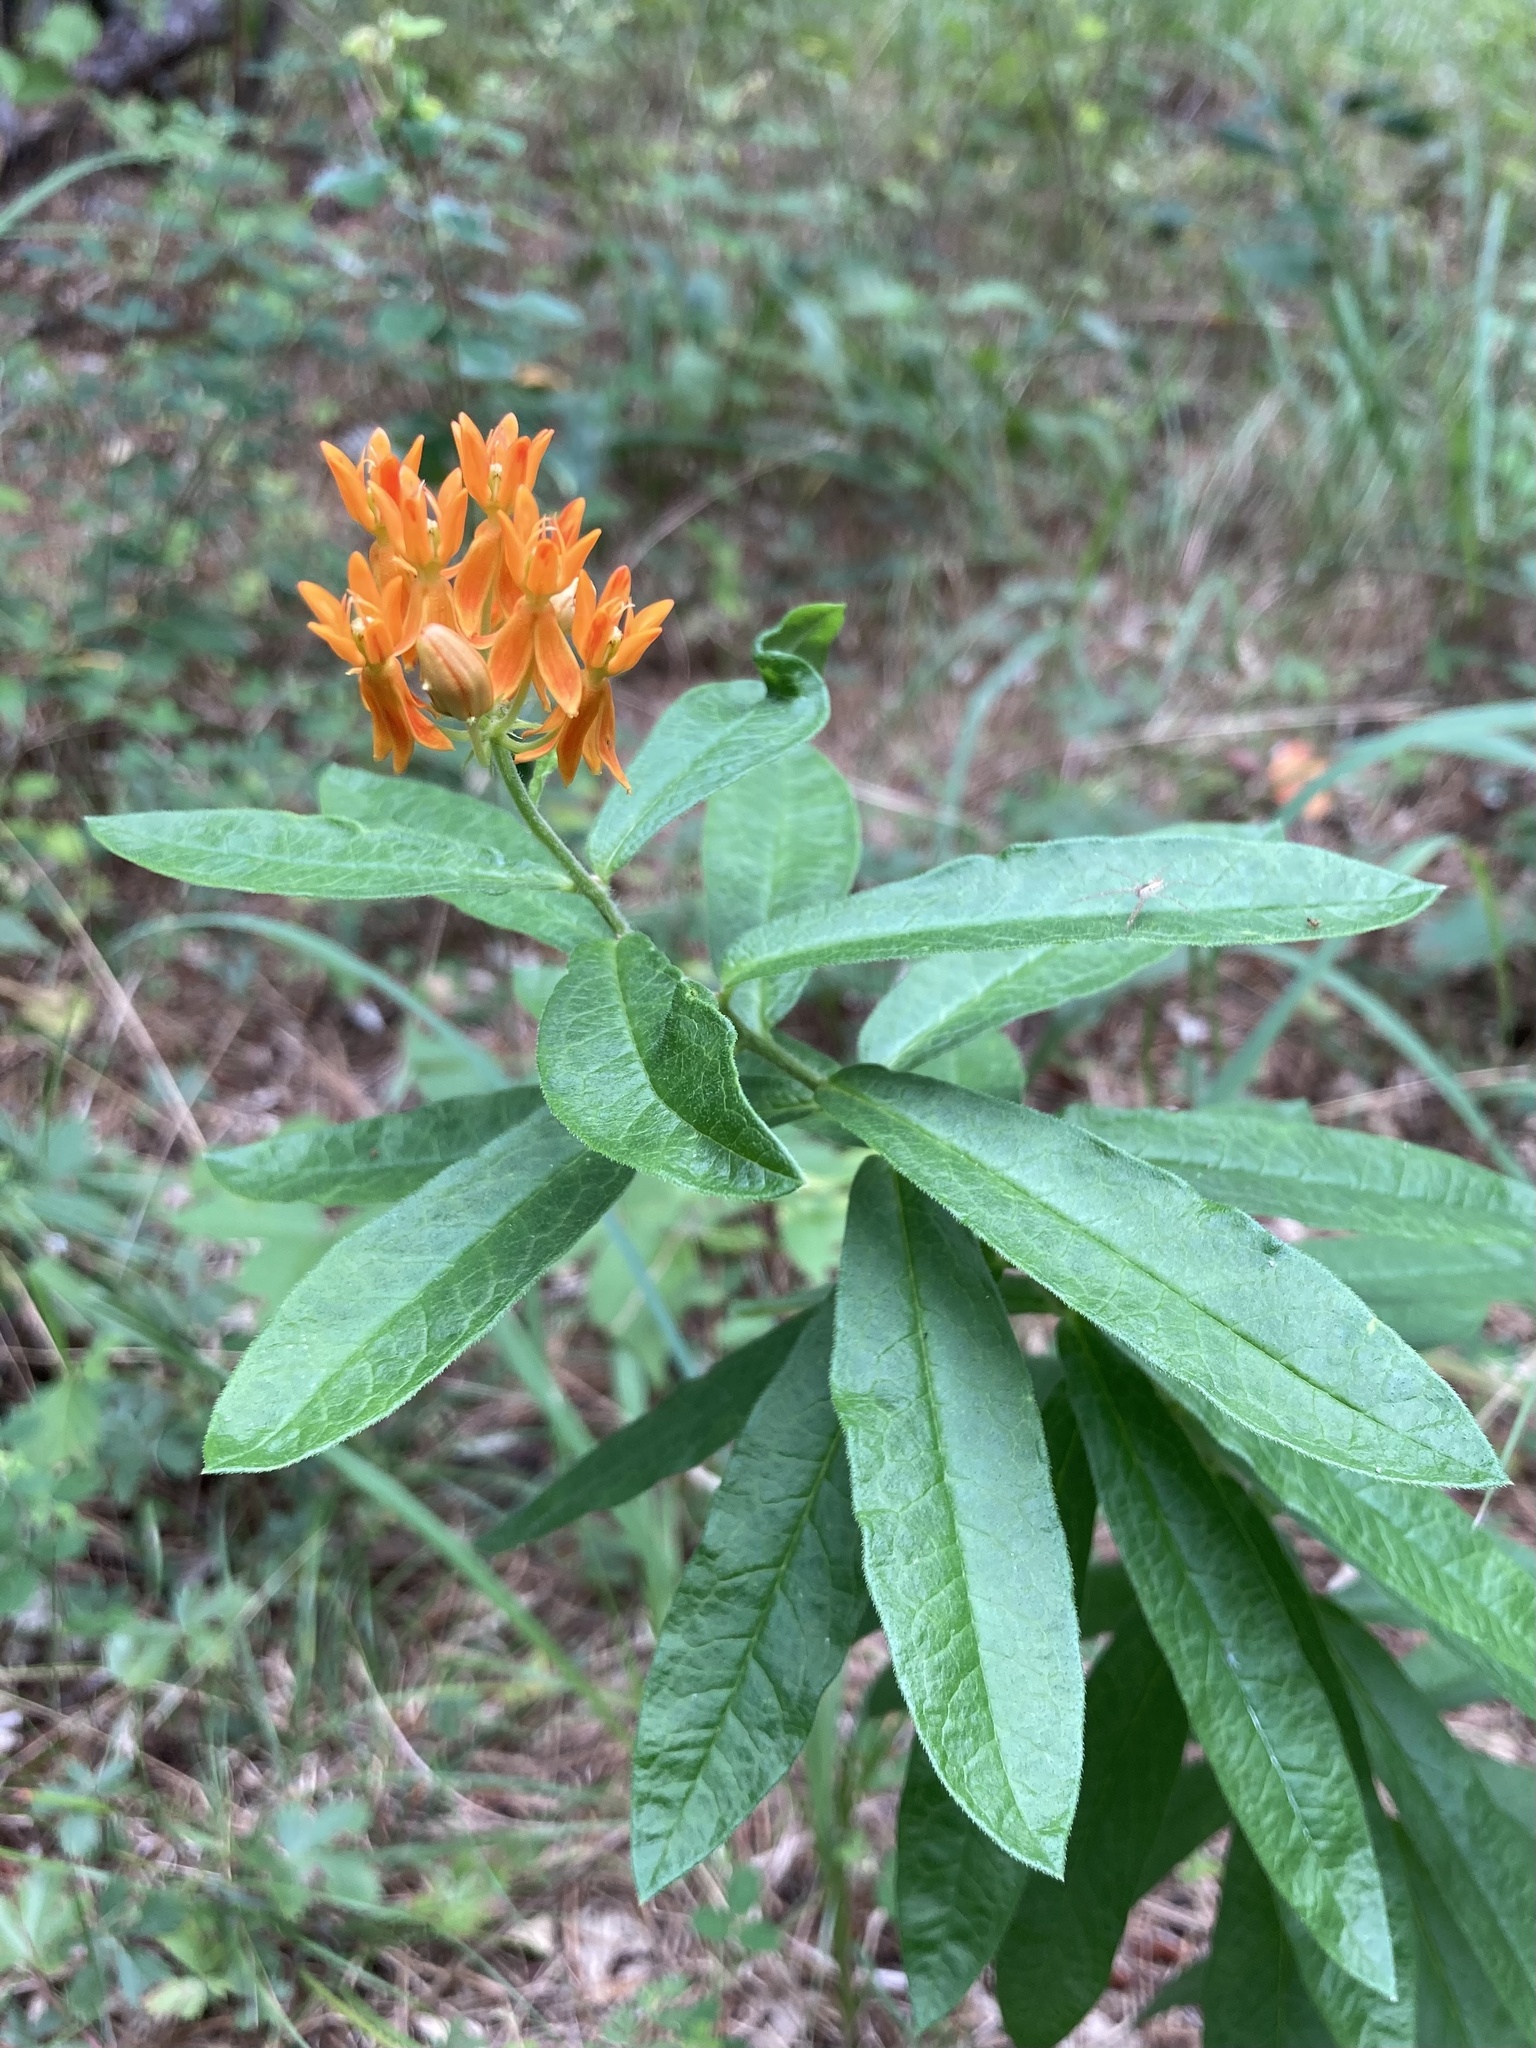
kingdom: Plantae
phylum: Tracheophyta
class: Magnoliopsida
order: Gentianales
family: Apocynaceae
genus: Asclepias
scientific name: Asclepias tuberosa
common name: Butterfly milkweed
